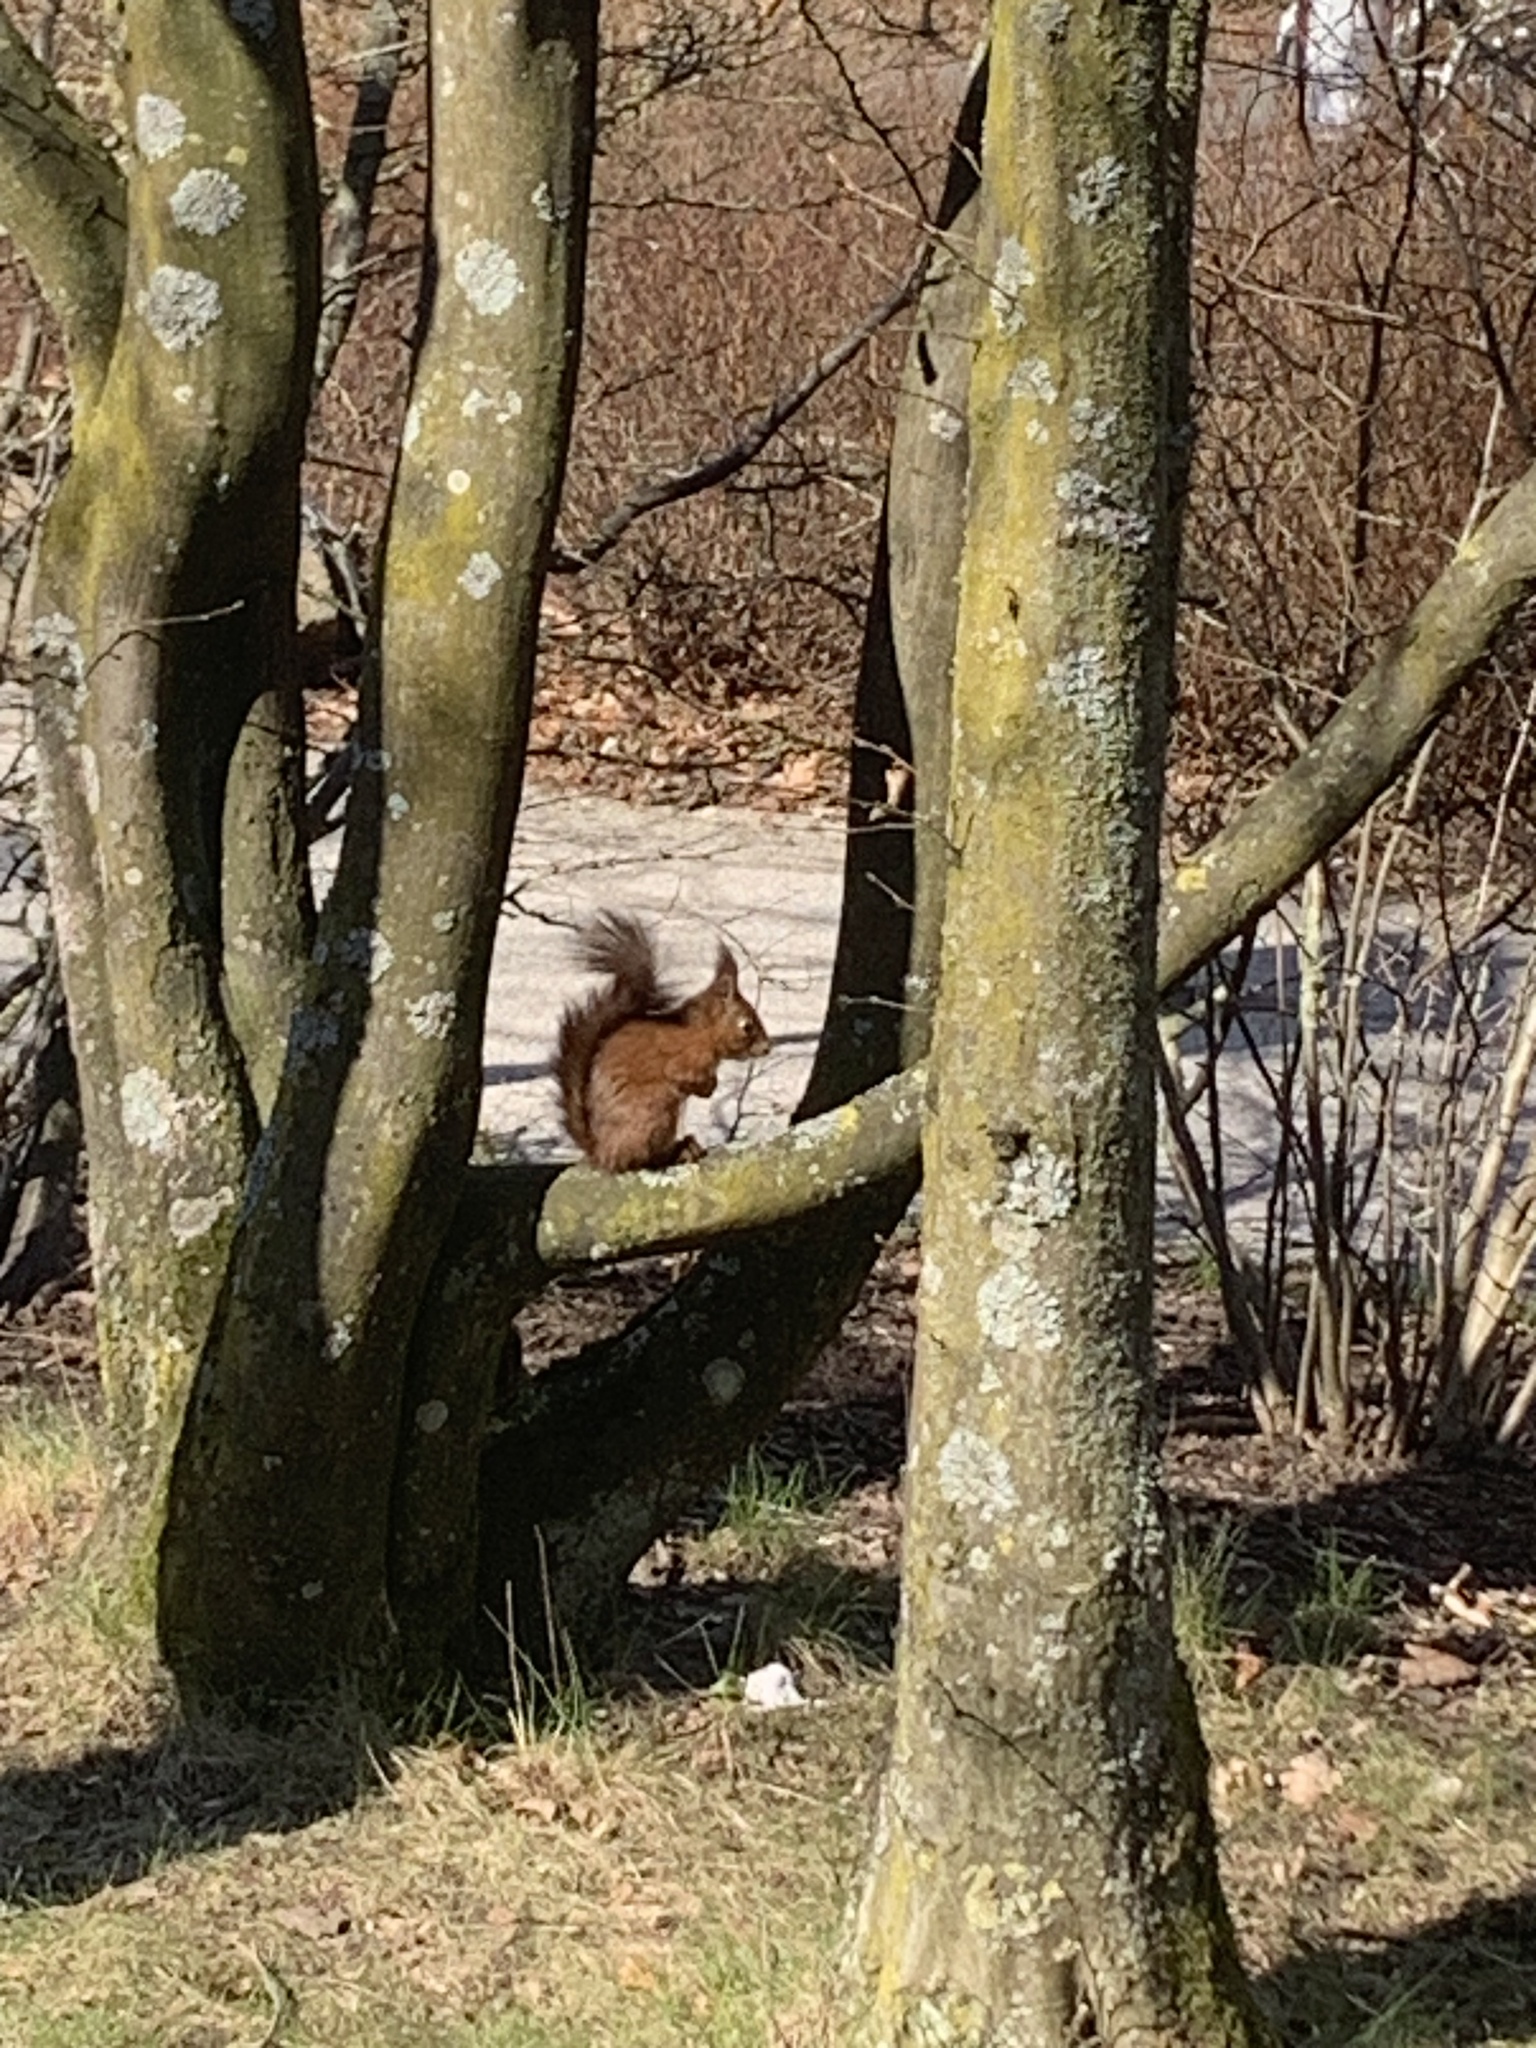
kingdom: Animalia
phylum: Chordata
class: Mammalia
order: Rodentia
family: Sciuridae
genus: Sciurus
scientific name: Sciurus vulgaris
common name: Eurasian red squirrel
